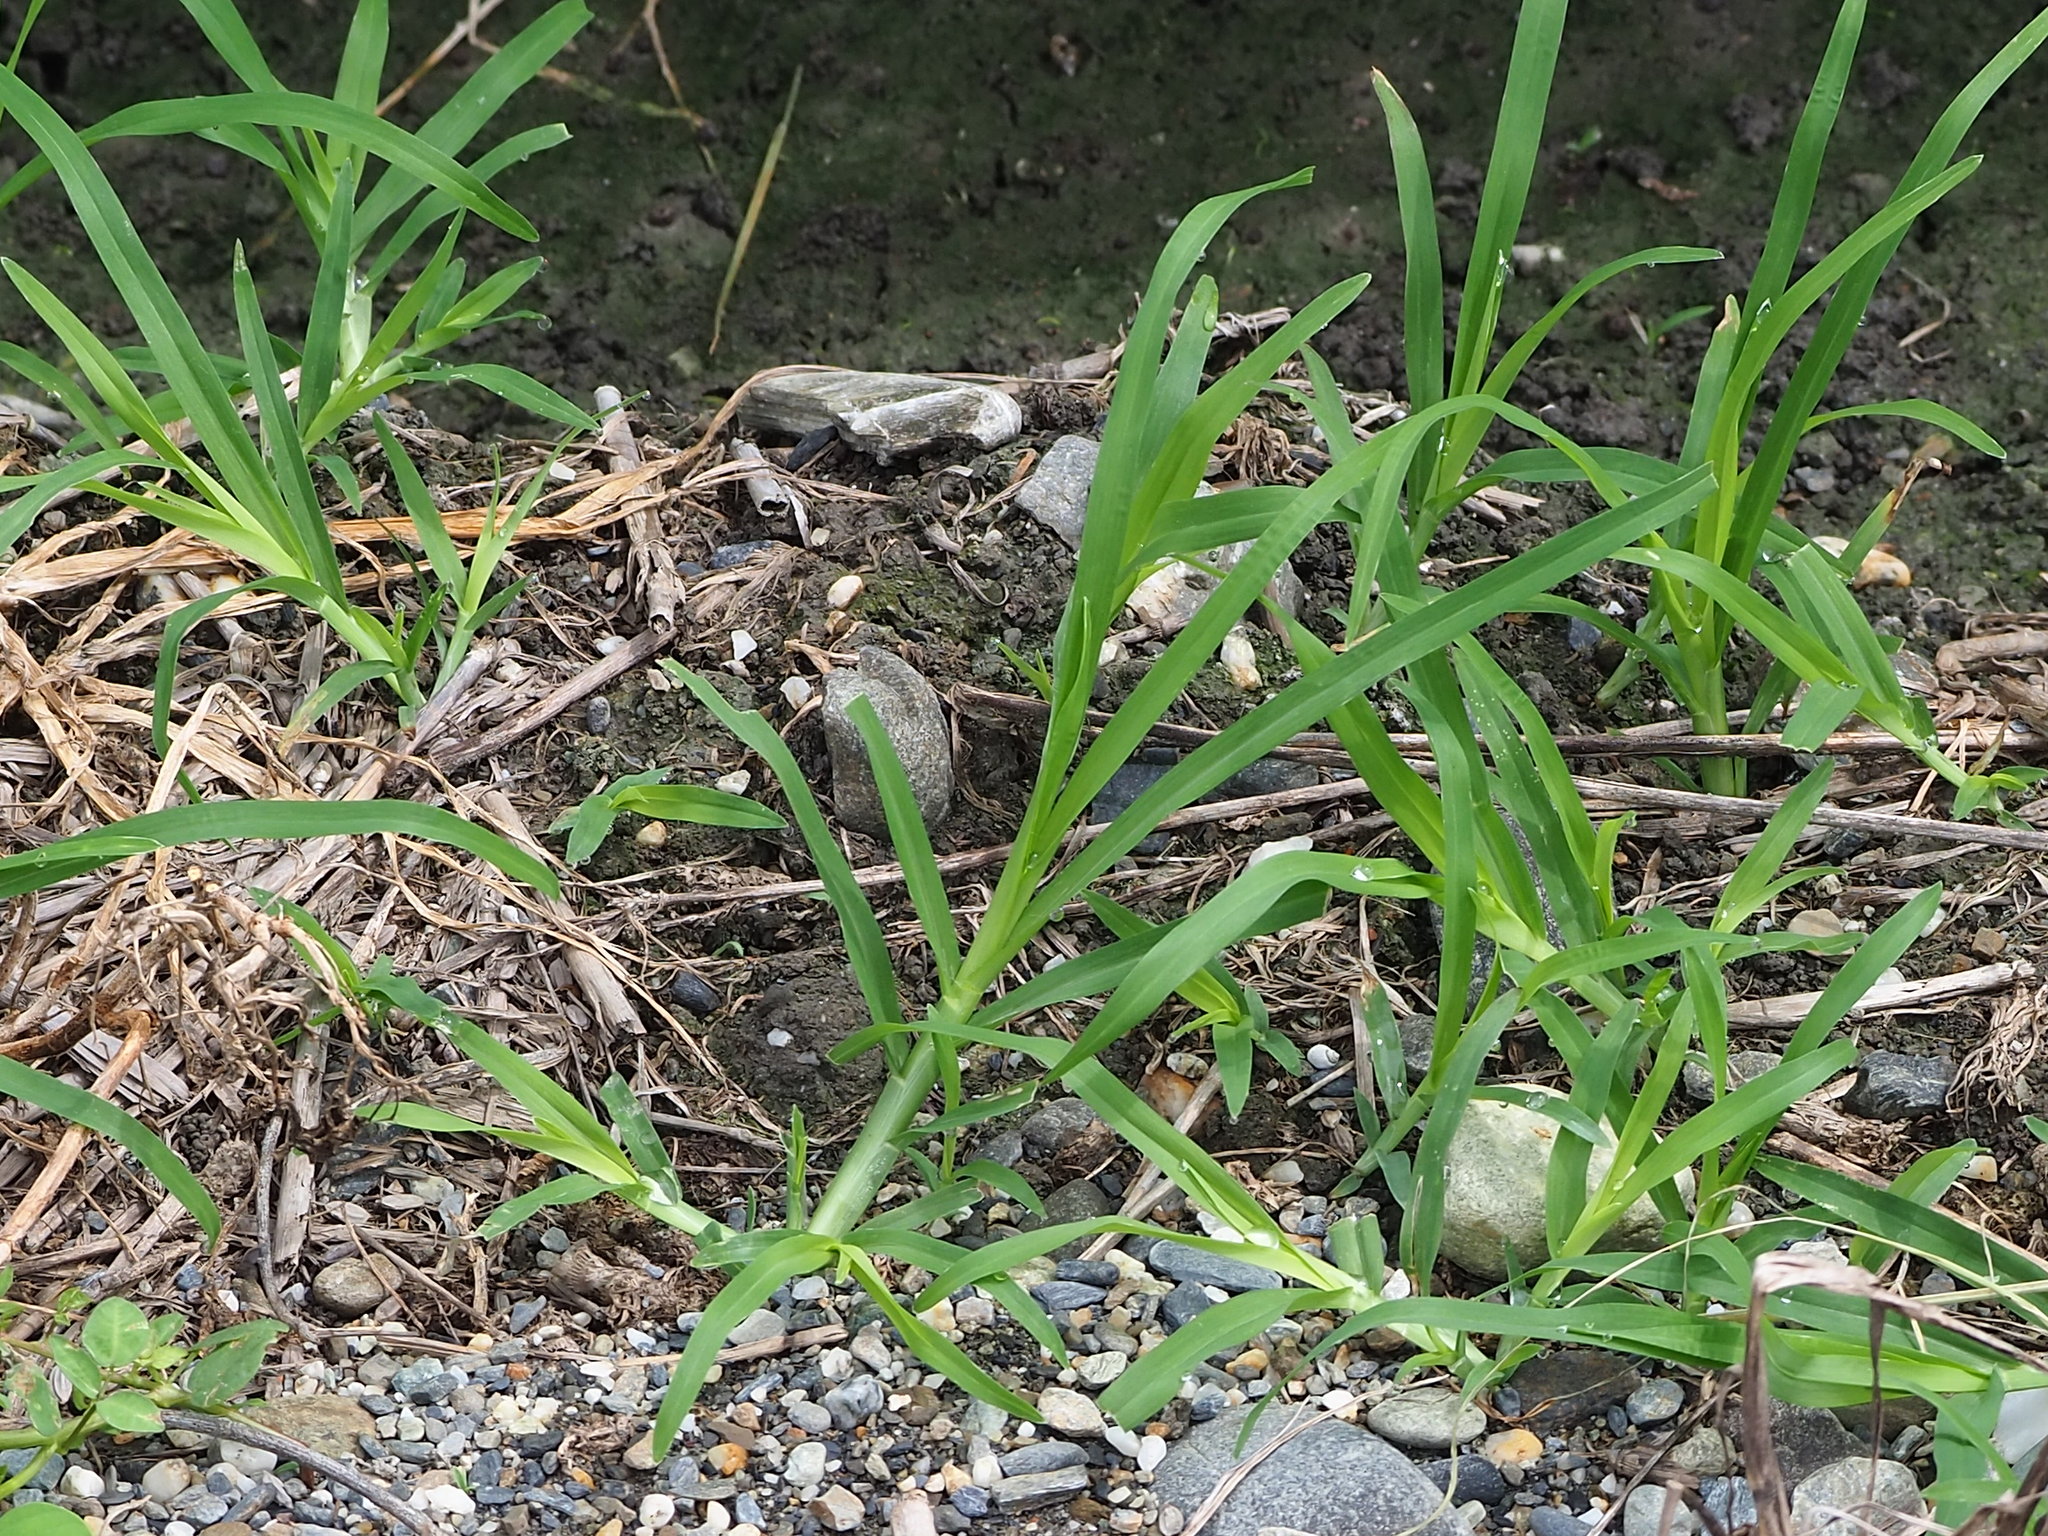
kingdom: Plantae
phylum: Tracheophyta
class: Liliopsida
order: Poales
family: Poaceae
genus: Eleusine
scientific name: Eleusine indica
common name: Yard-grass
